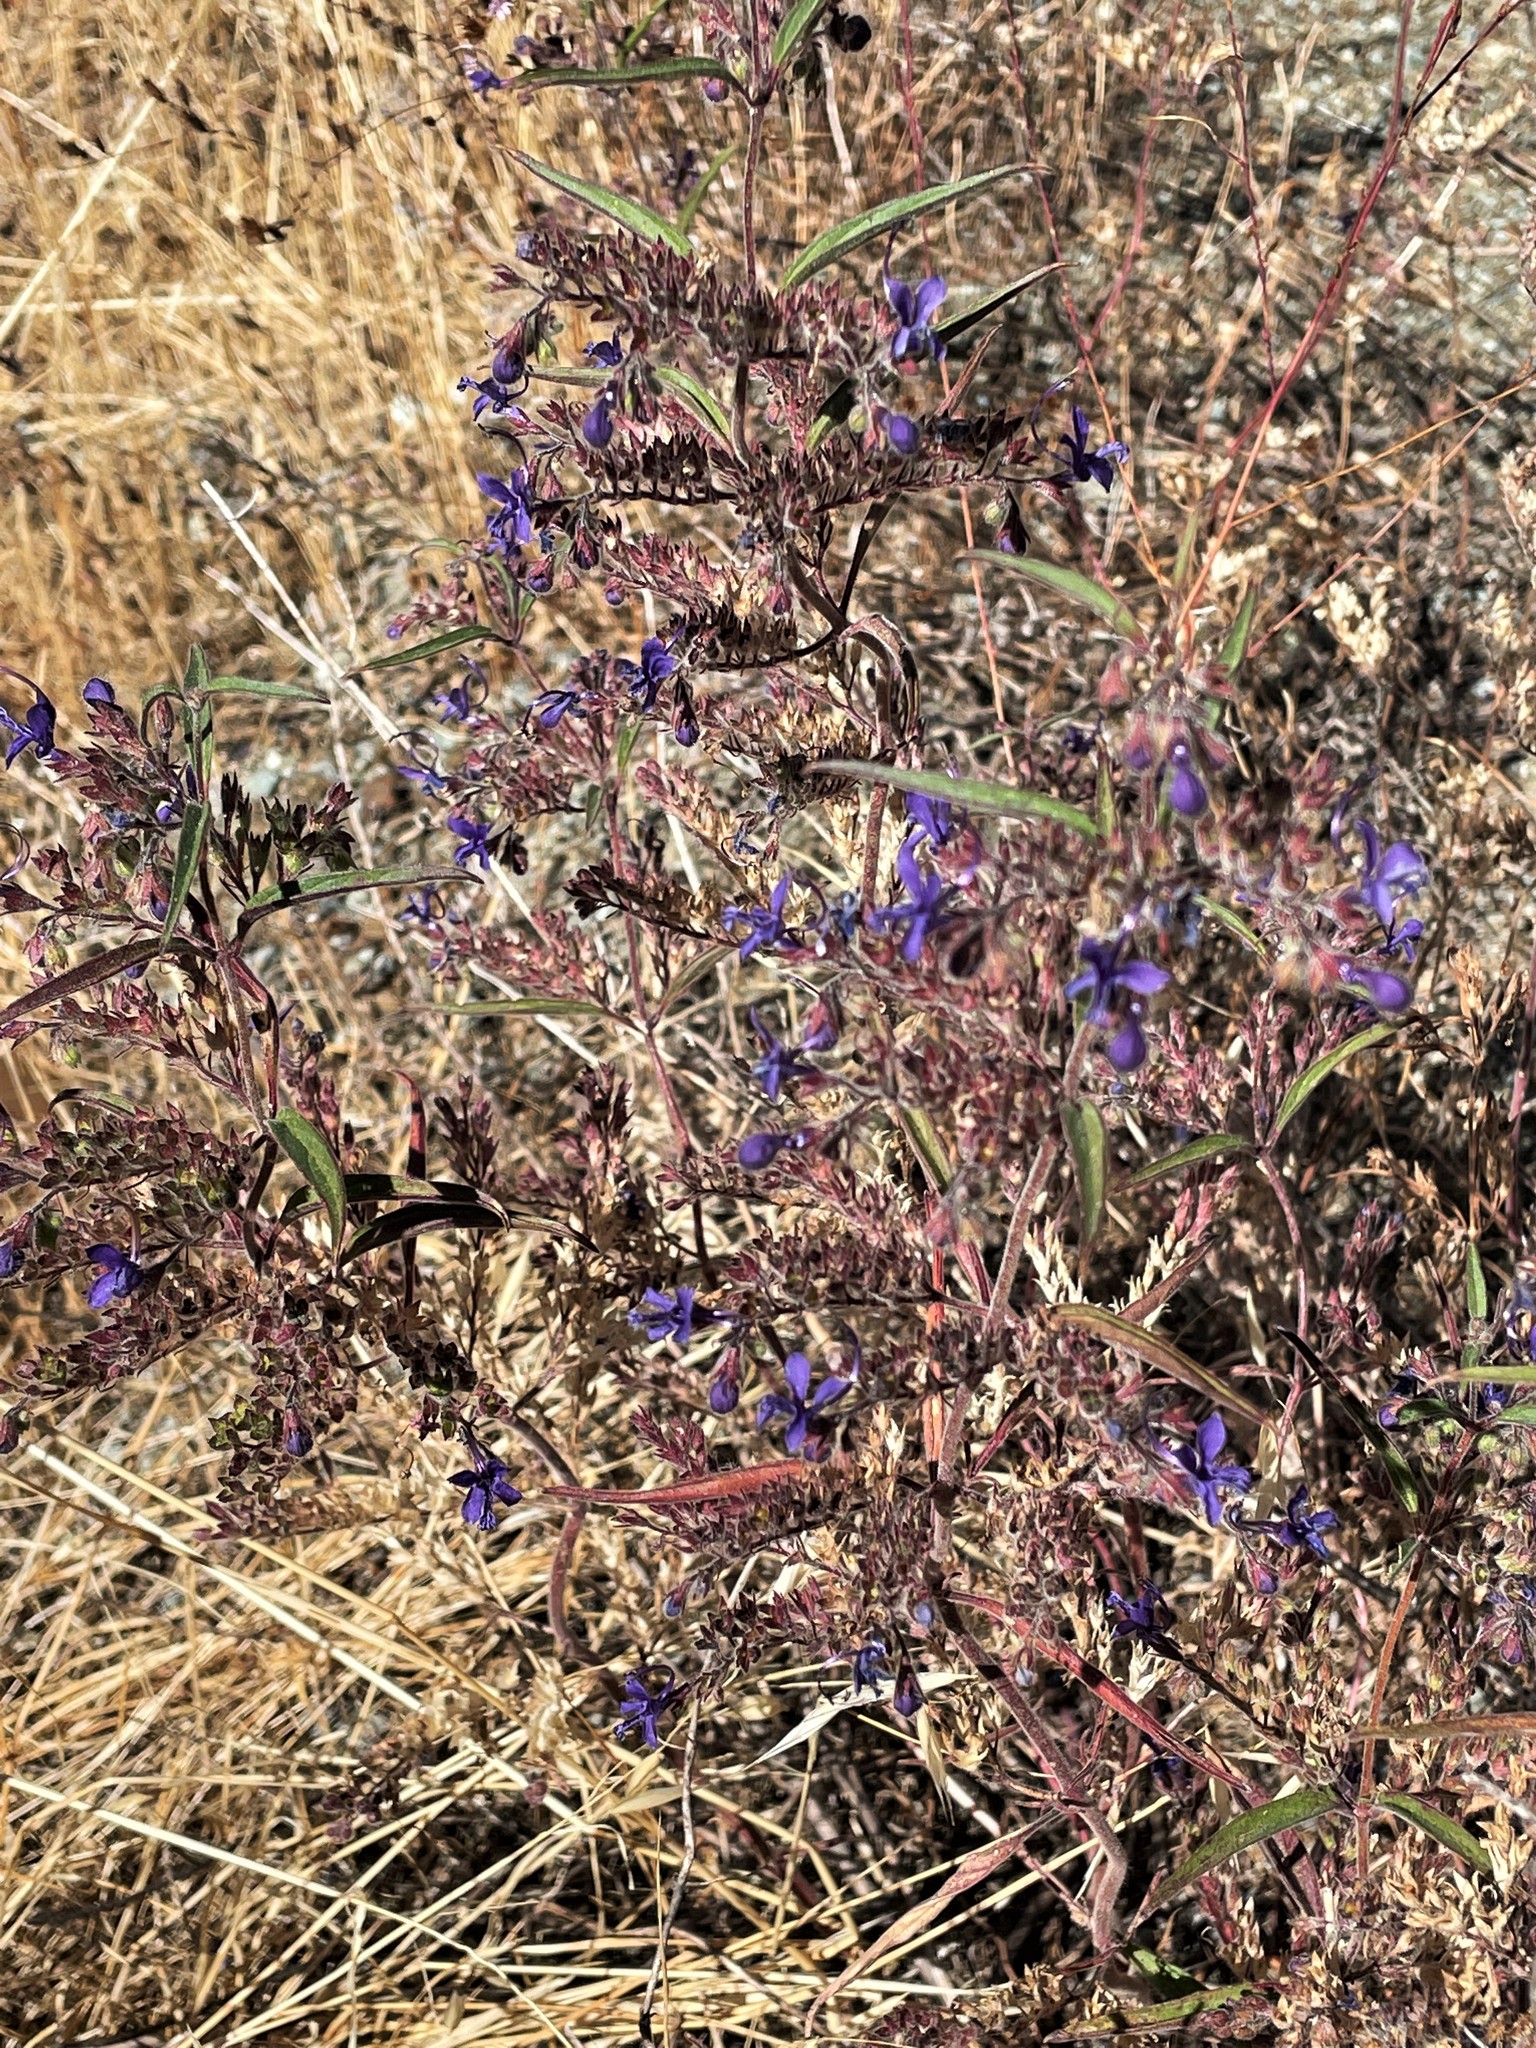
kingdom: Plantae
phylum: Tracheophyta
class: Magnoliopsida
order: Lamiales
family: Lamiaceae
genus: Trichostema
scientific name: Trichostema laxum
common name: Turpentine weed
